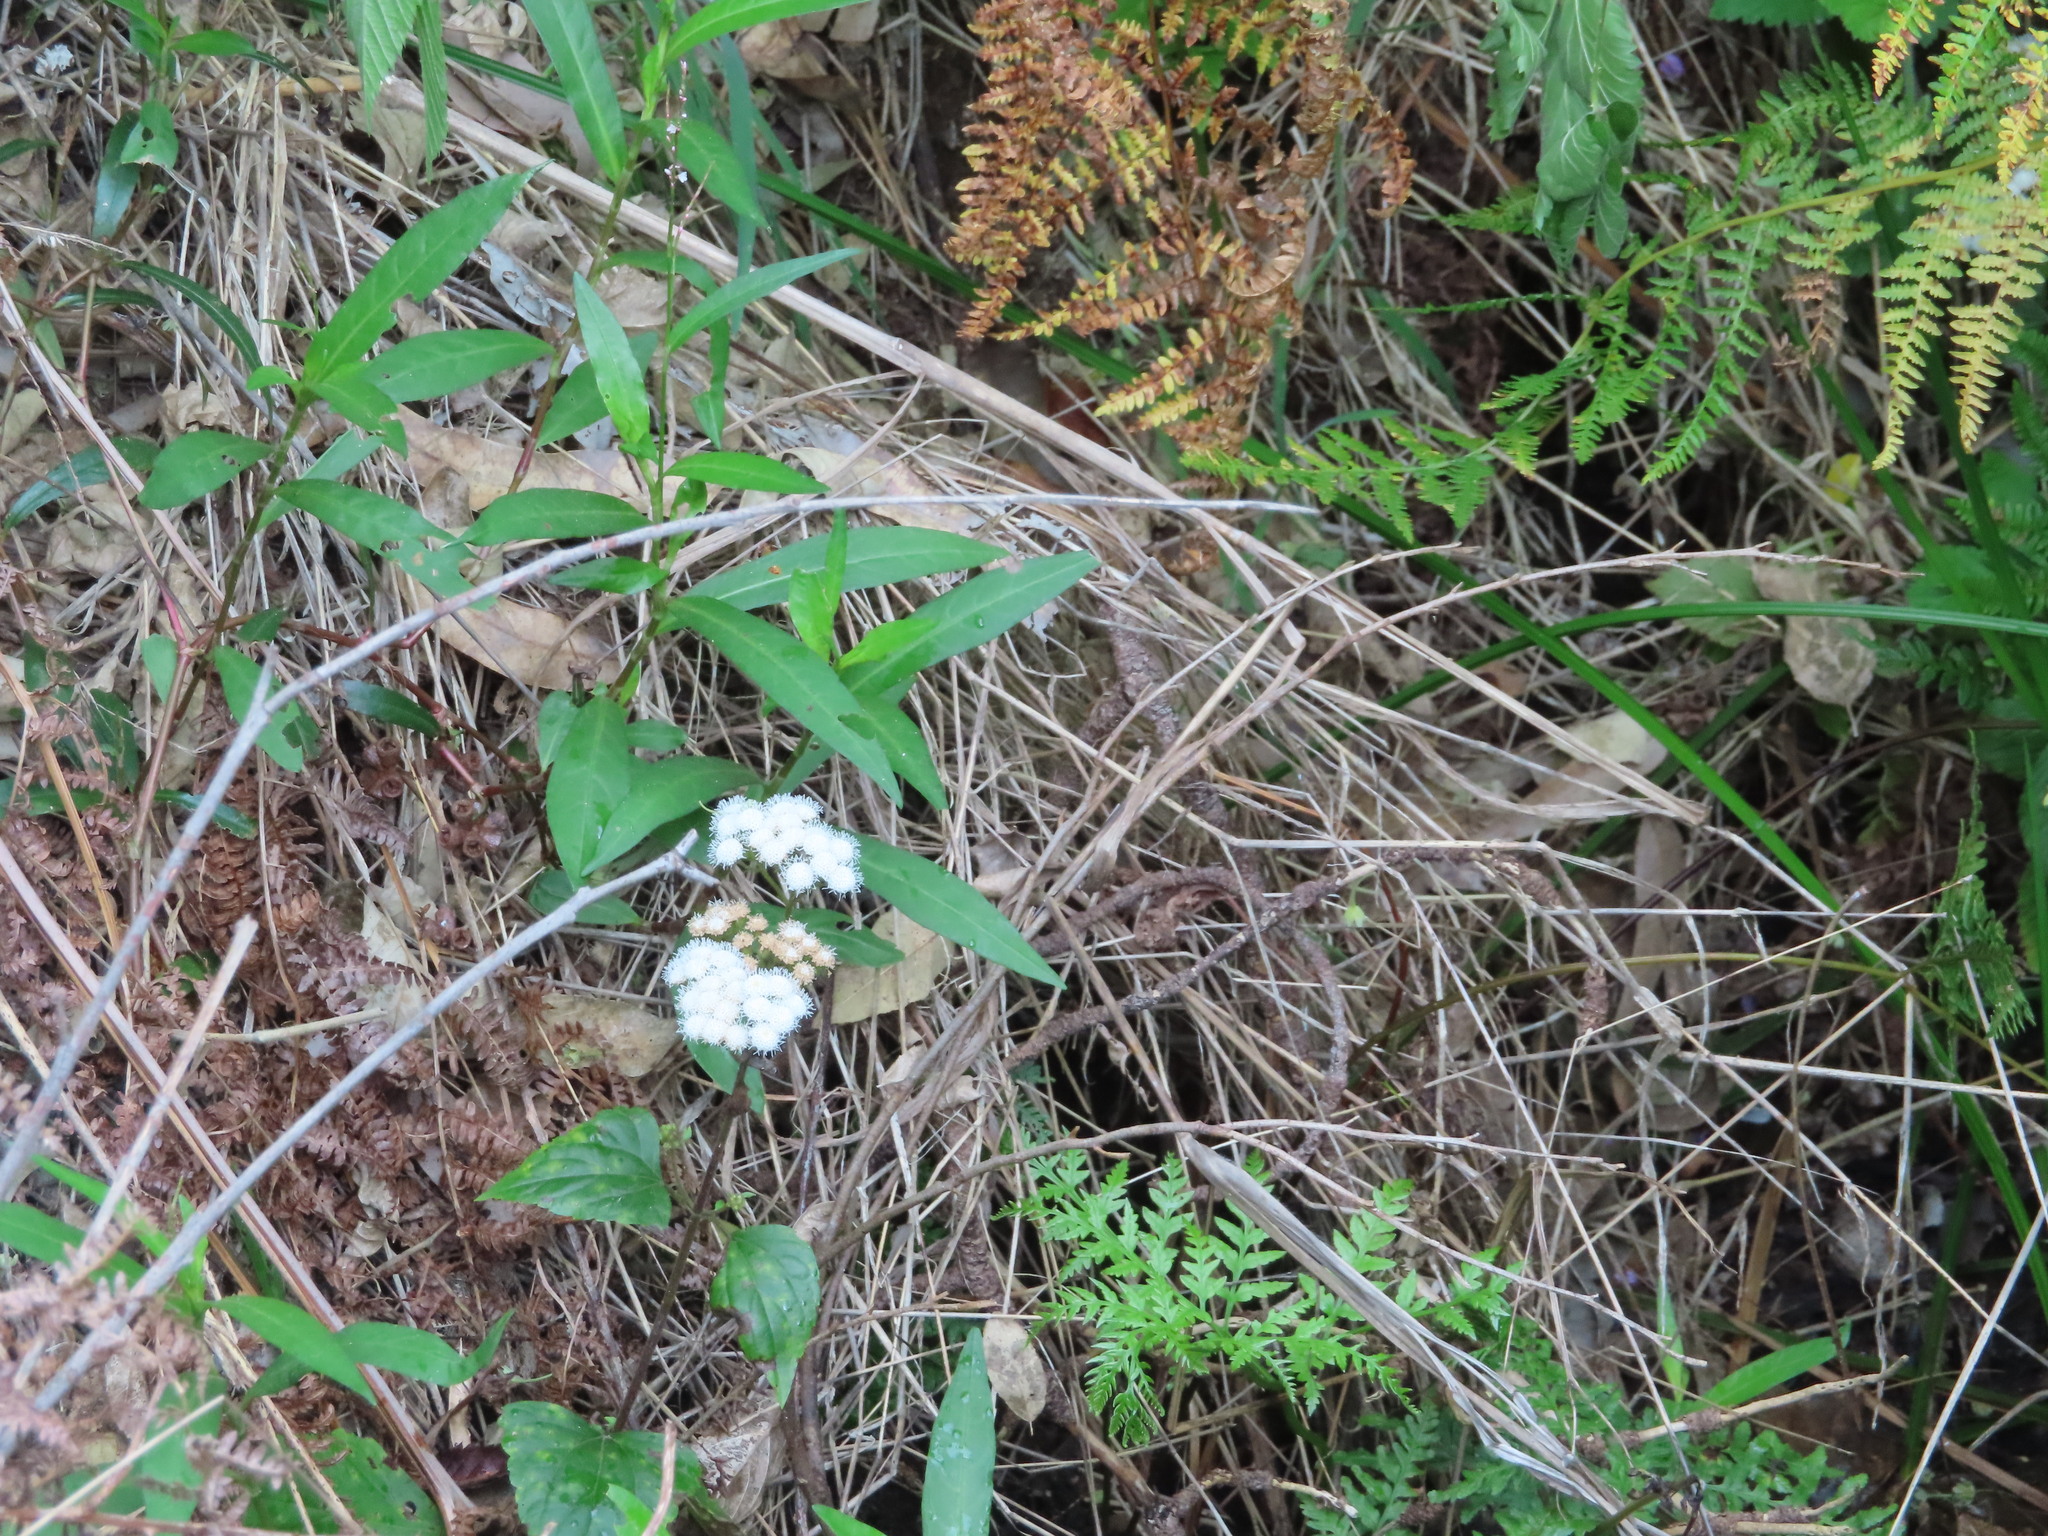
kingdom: Plantae
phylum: Tracheophyta
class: Magnoliopsida
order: Asterales
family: Asteraceae
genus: Ageratina
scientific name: Ageratina adenophora
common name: Sticky snakeroot
